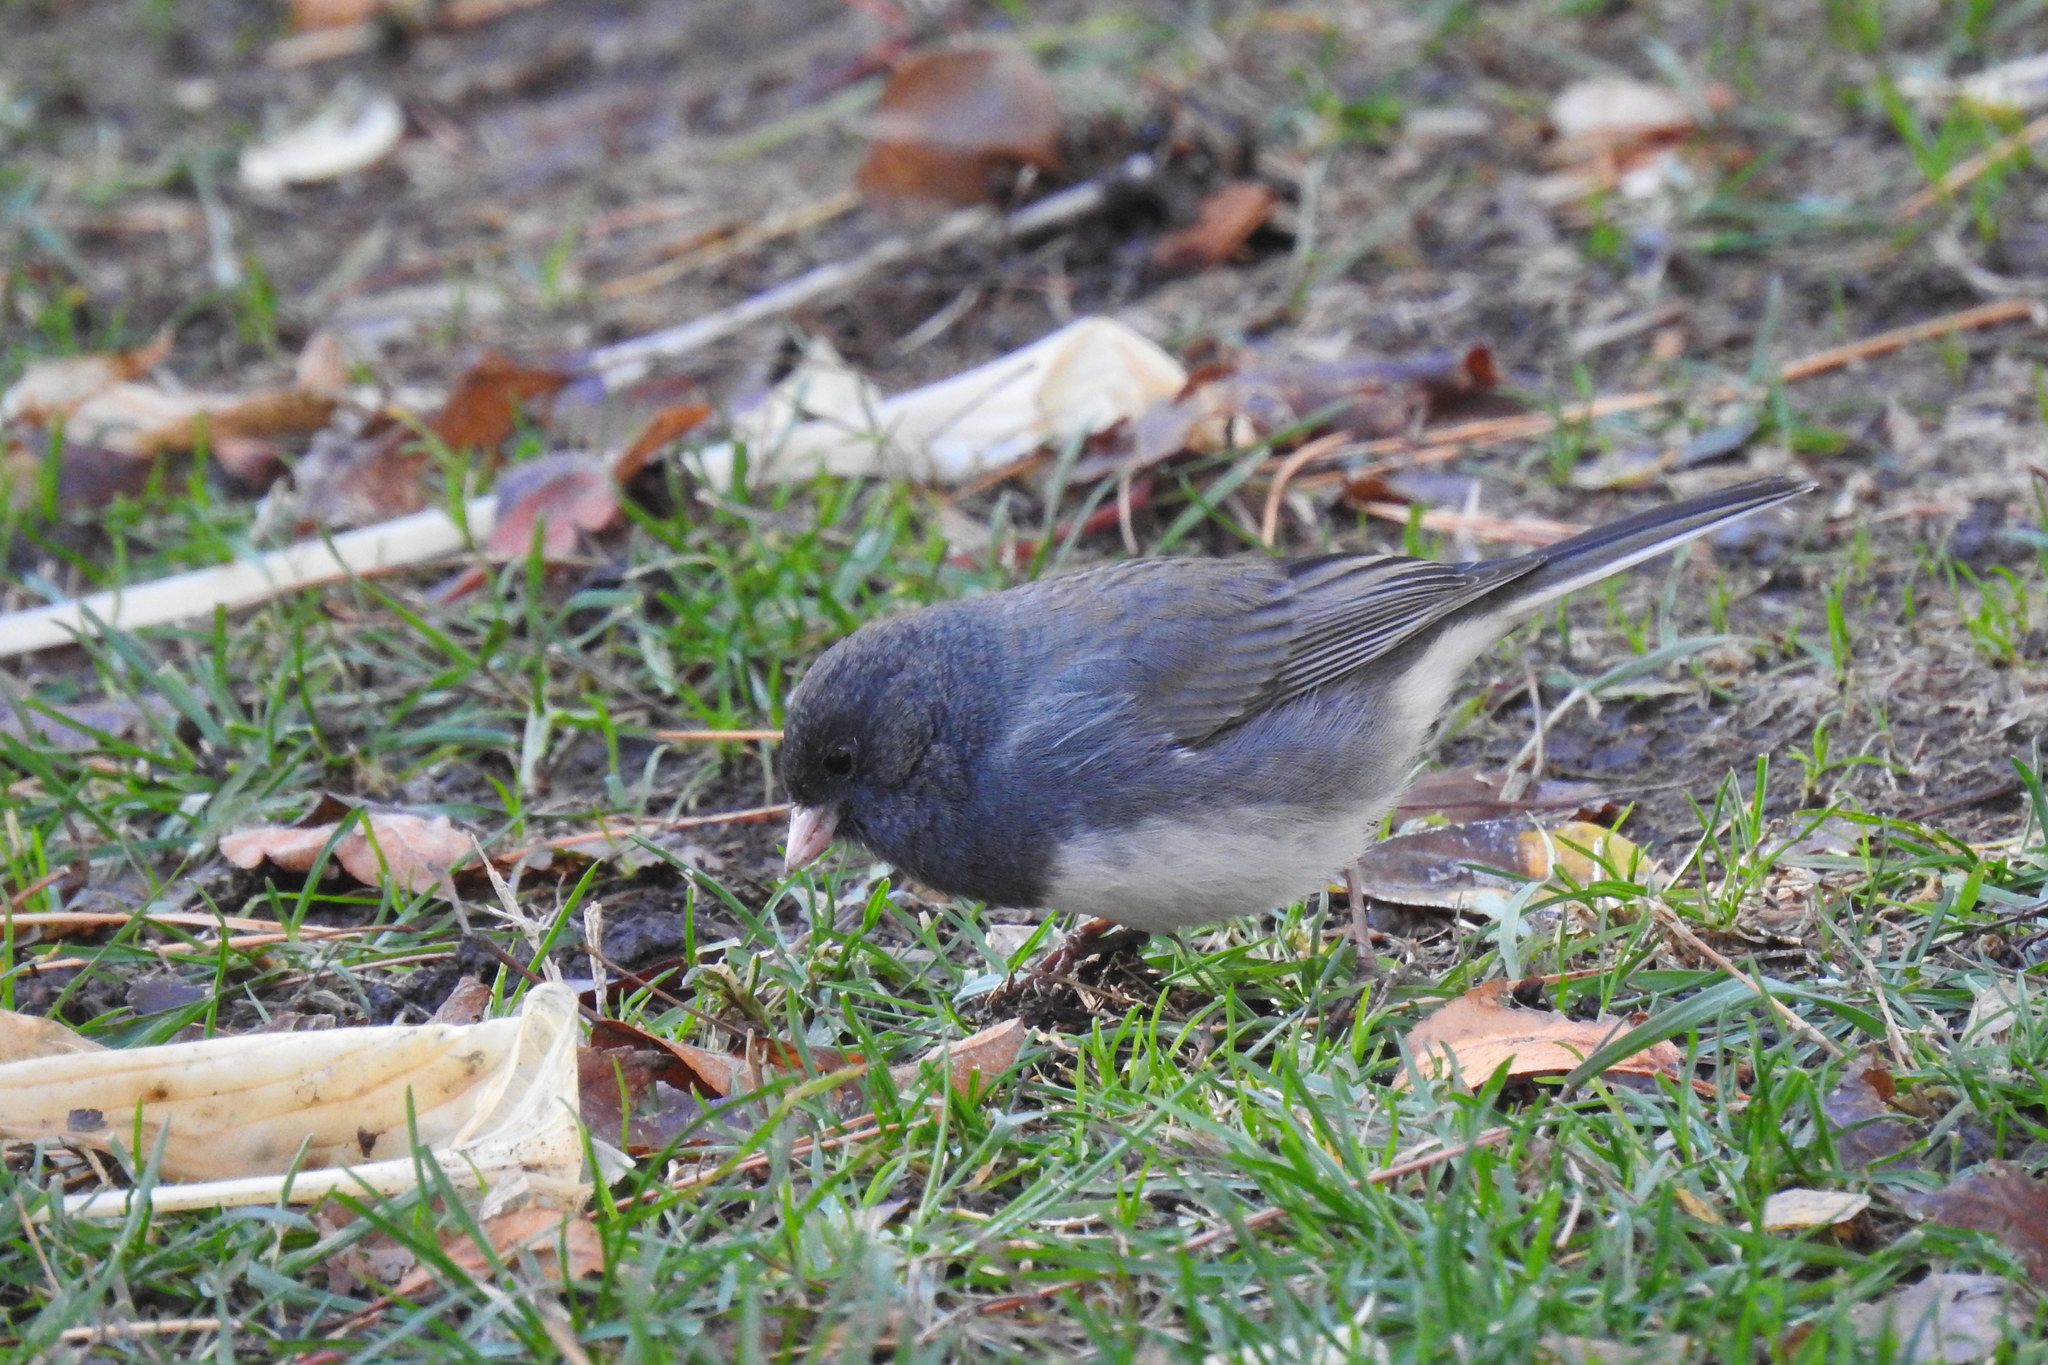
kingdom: Animalia
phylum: Chordata
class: Aves
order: Passeriformes
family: Passerellidae
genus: Junco
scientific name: Junco hyemalis
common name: Dark-eyed junco
